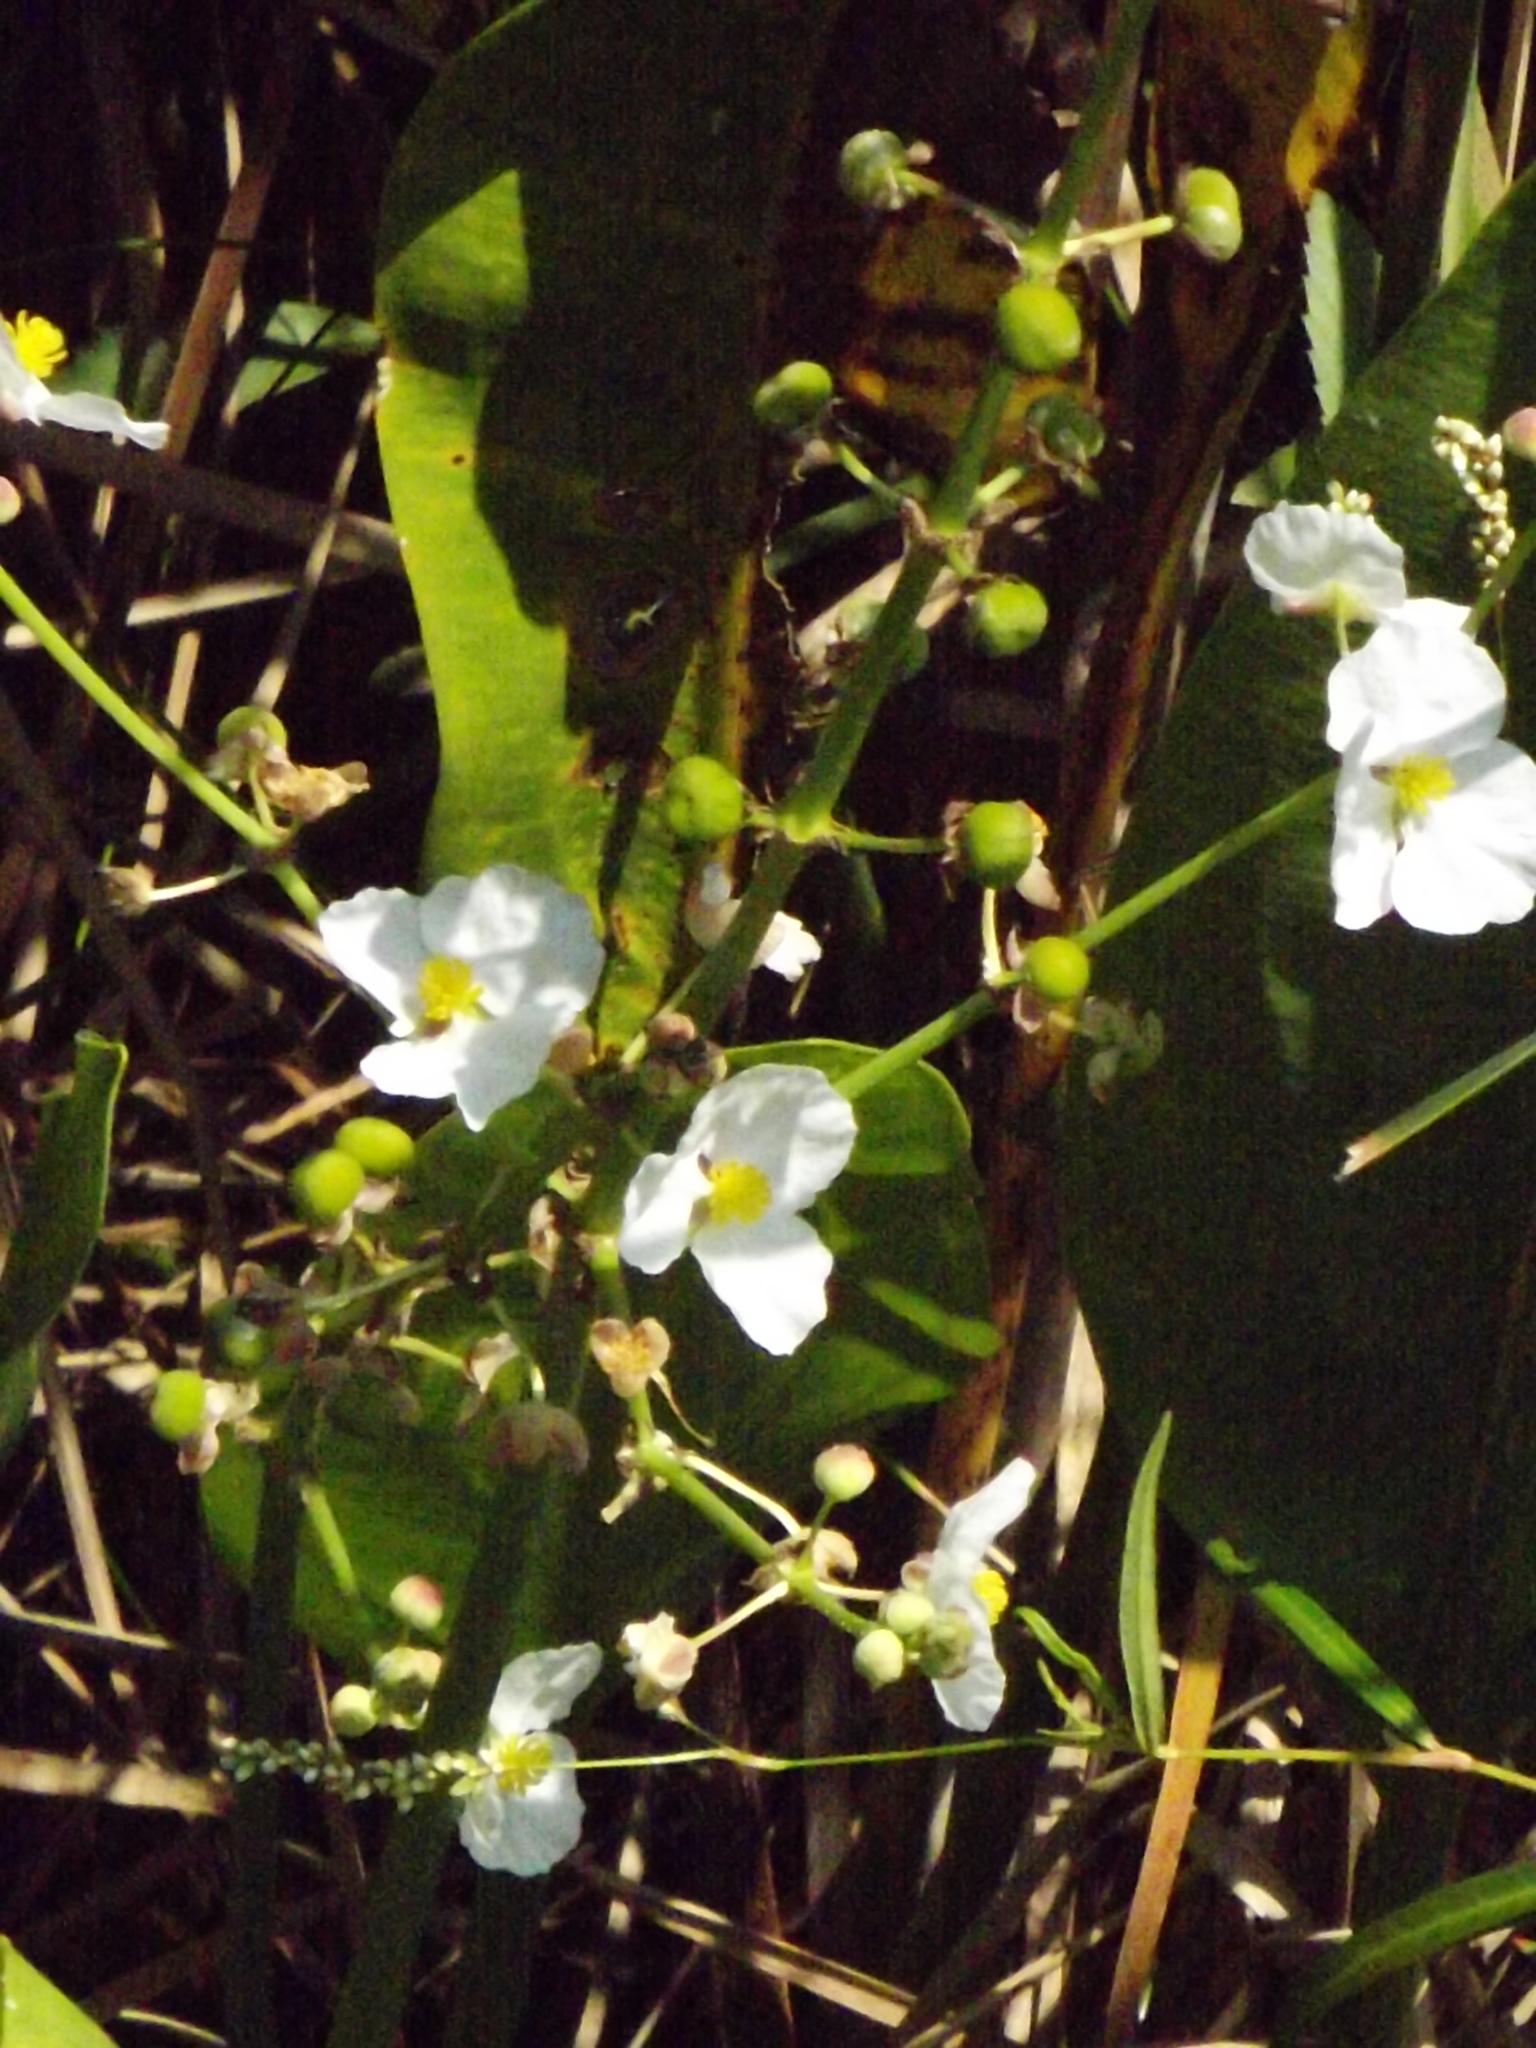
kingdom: Plantae
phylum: Tracheophyta
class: Liliopsida
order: Alismatales
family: Alismataceae
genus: Sagittaria
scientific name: Sagittaria lancifolia
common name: Lance-leaf arrowhead
